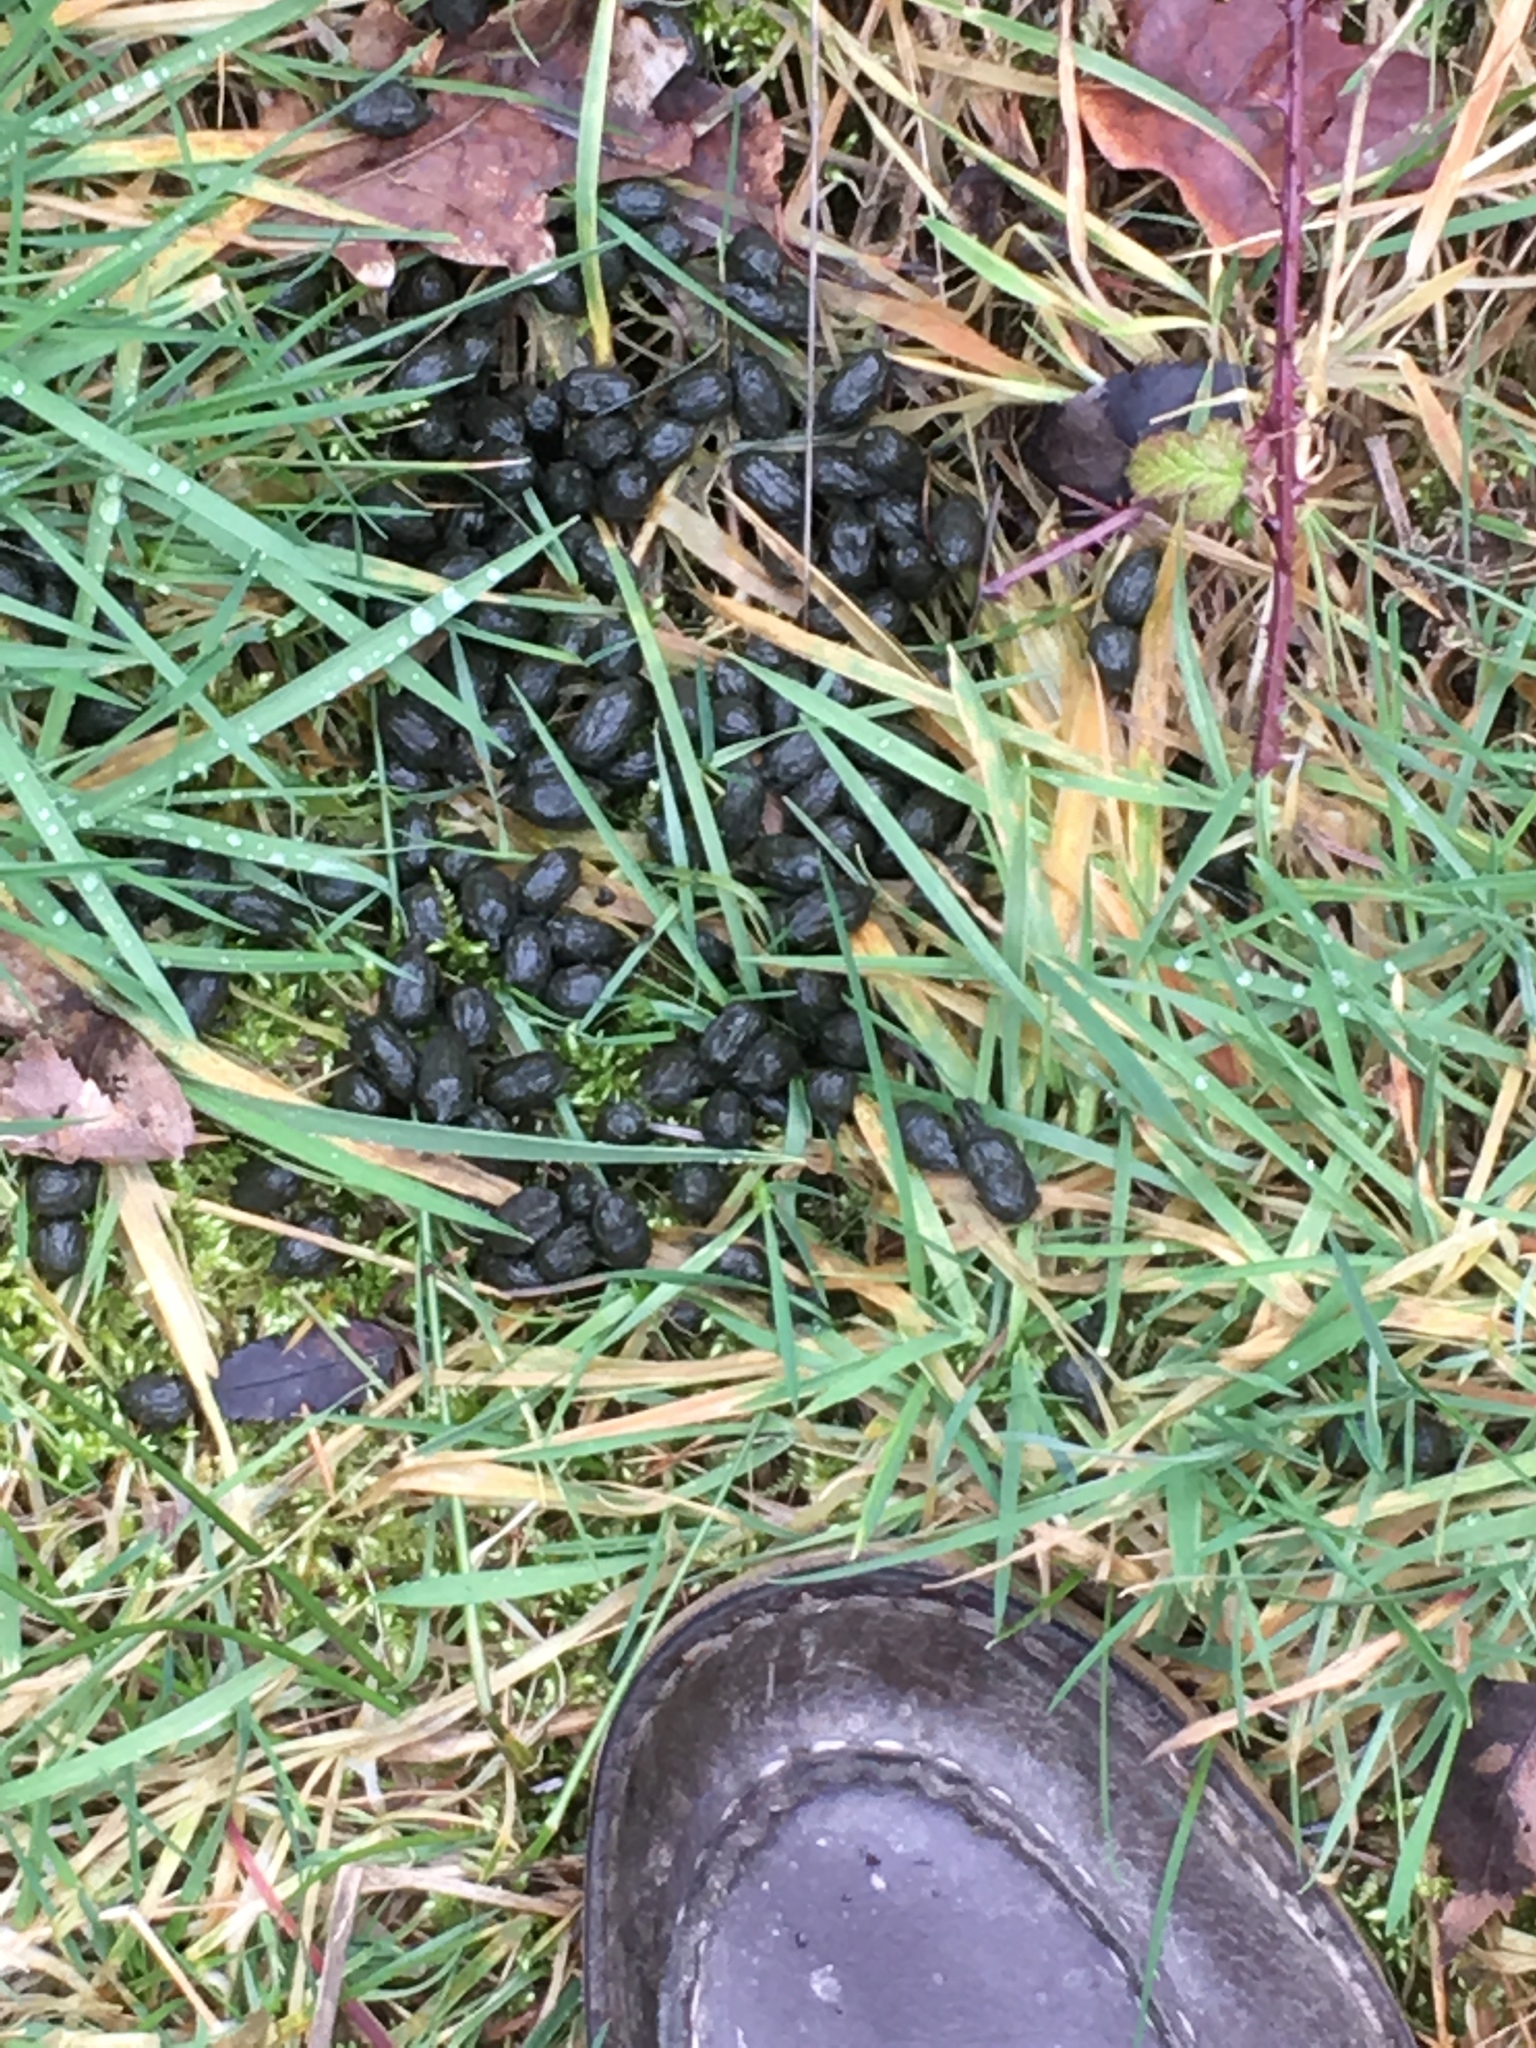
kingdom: Animalia
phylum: Chordata
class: Mammalia
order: Artiodactyla
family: Cervidae
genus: Capreolus
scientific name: Capreolus capreolus
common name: Western roe deer
